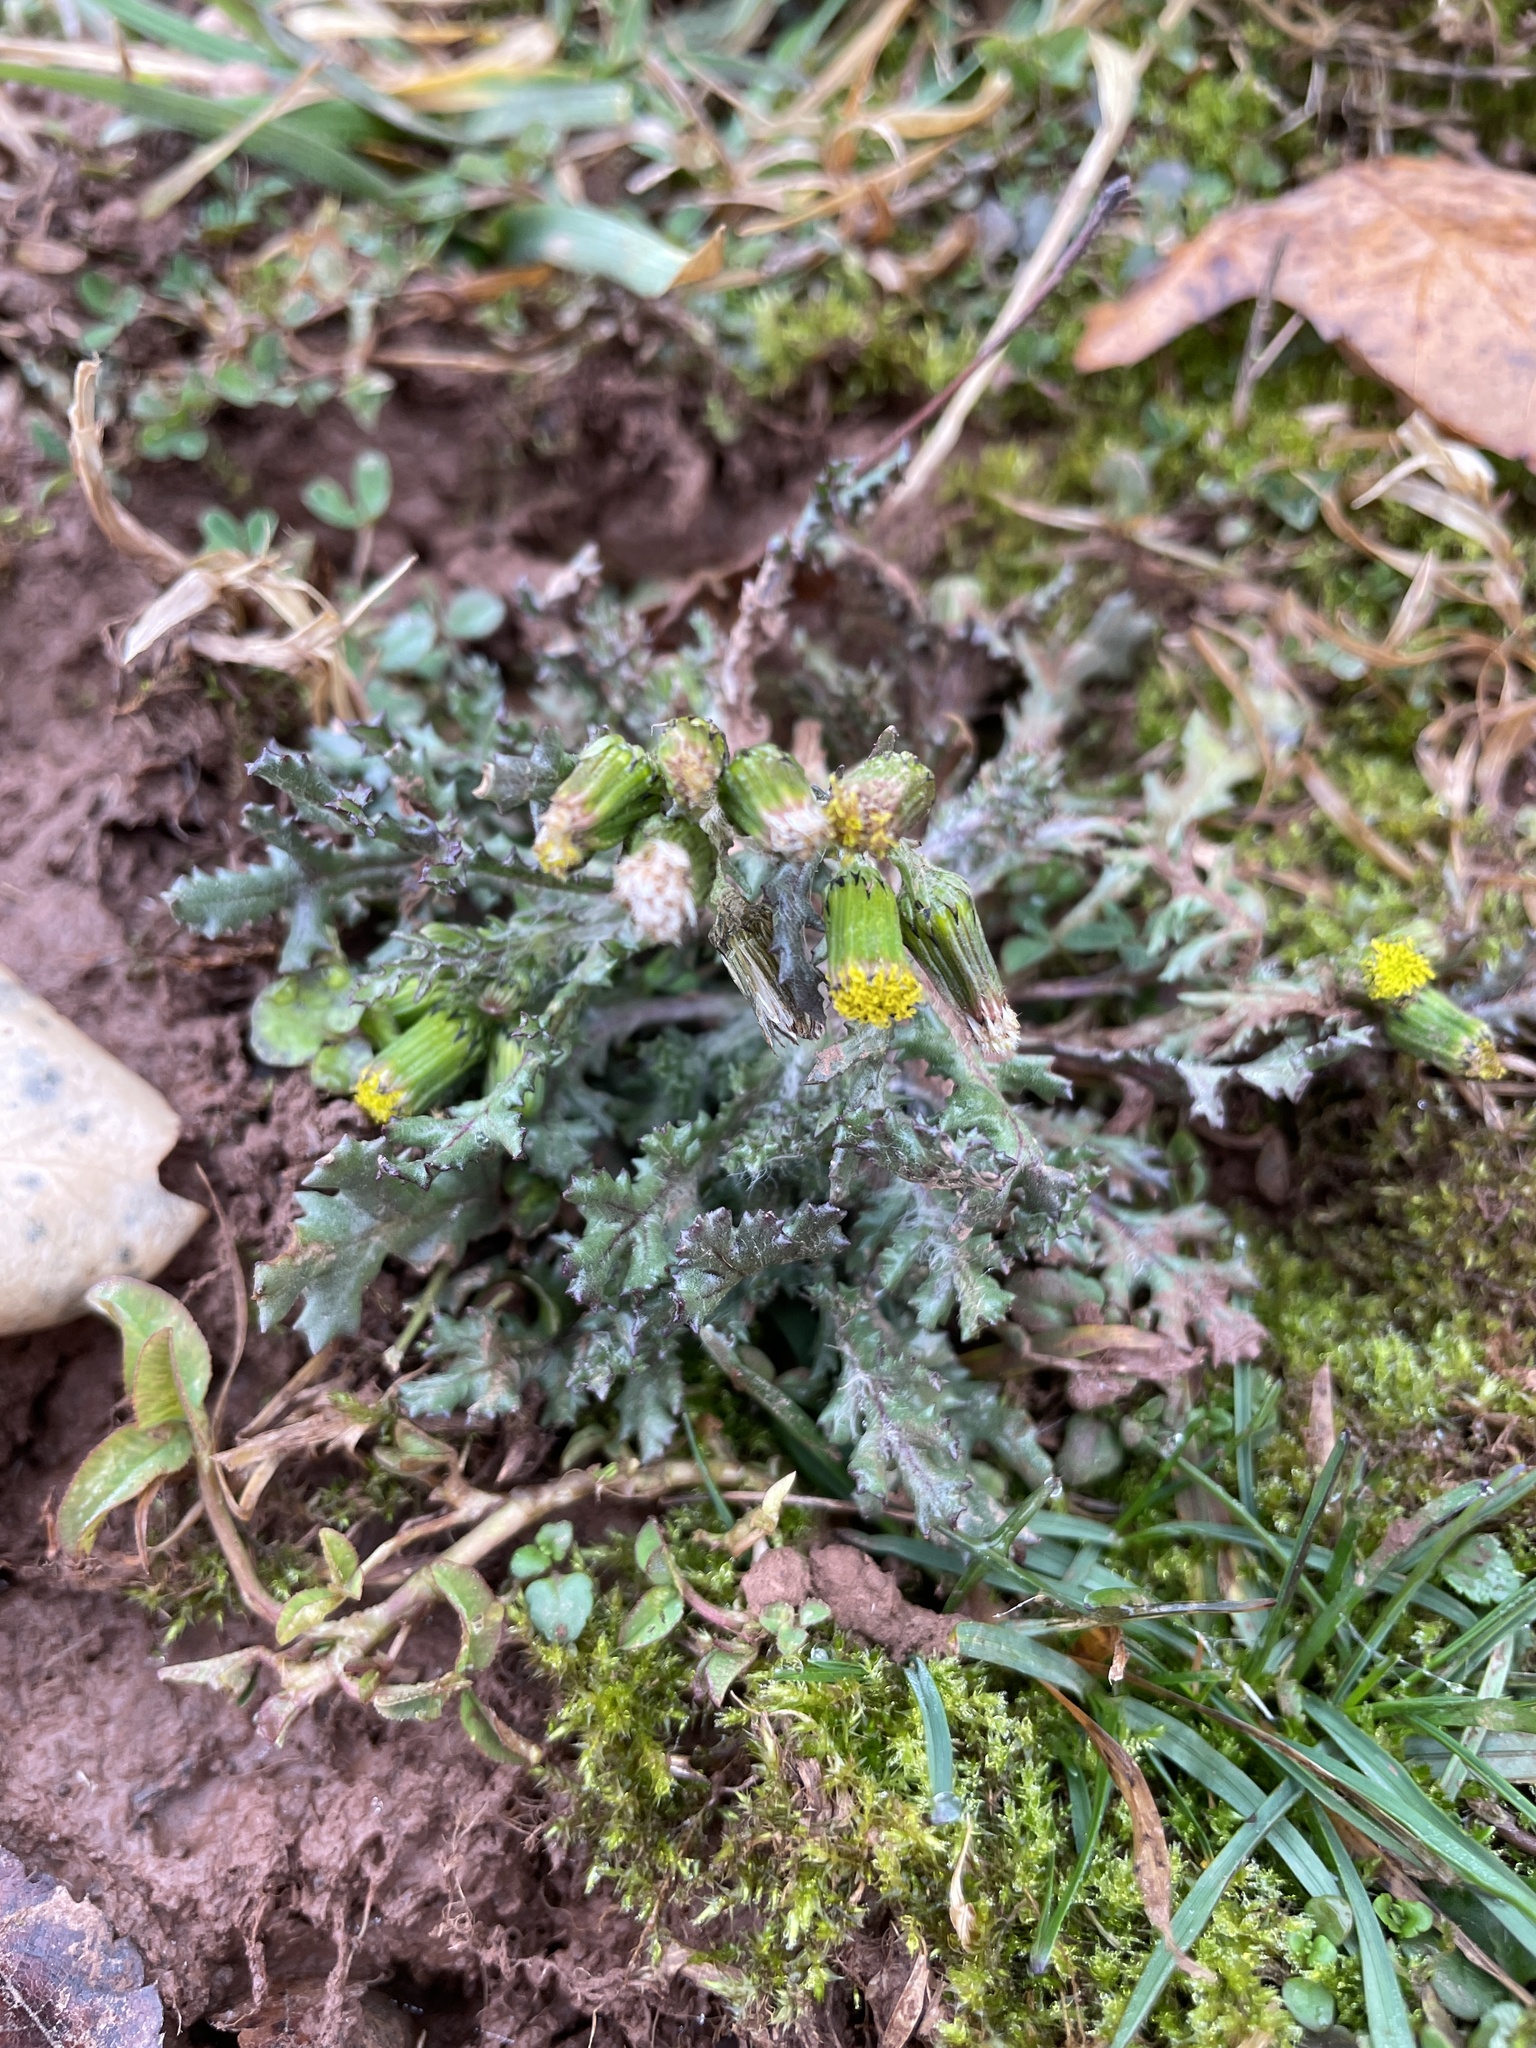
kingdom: Plantae
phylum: Tracheophyta
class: Magnoliopsida
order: Asterales
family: Asteraceae
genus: Senecio
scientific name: Senecio vulgaris
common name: Old-man-in-the-spring
